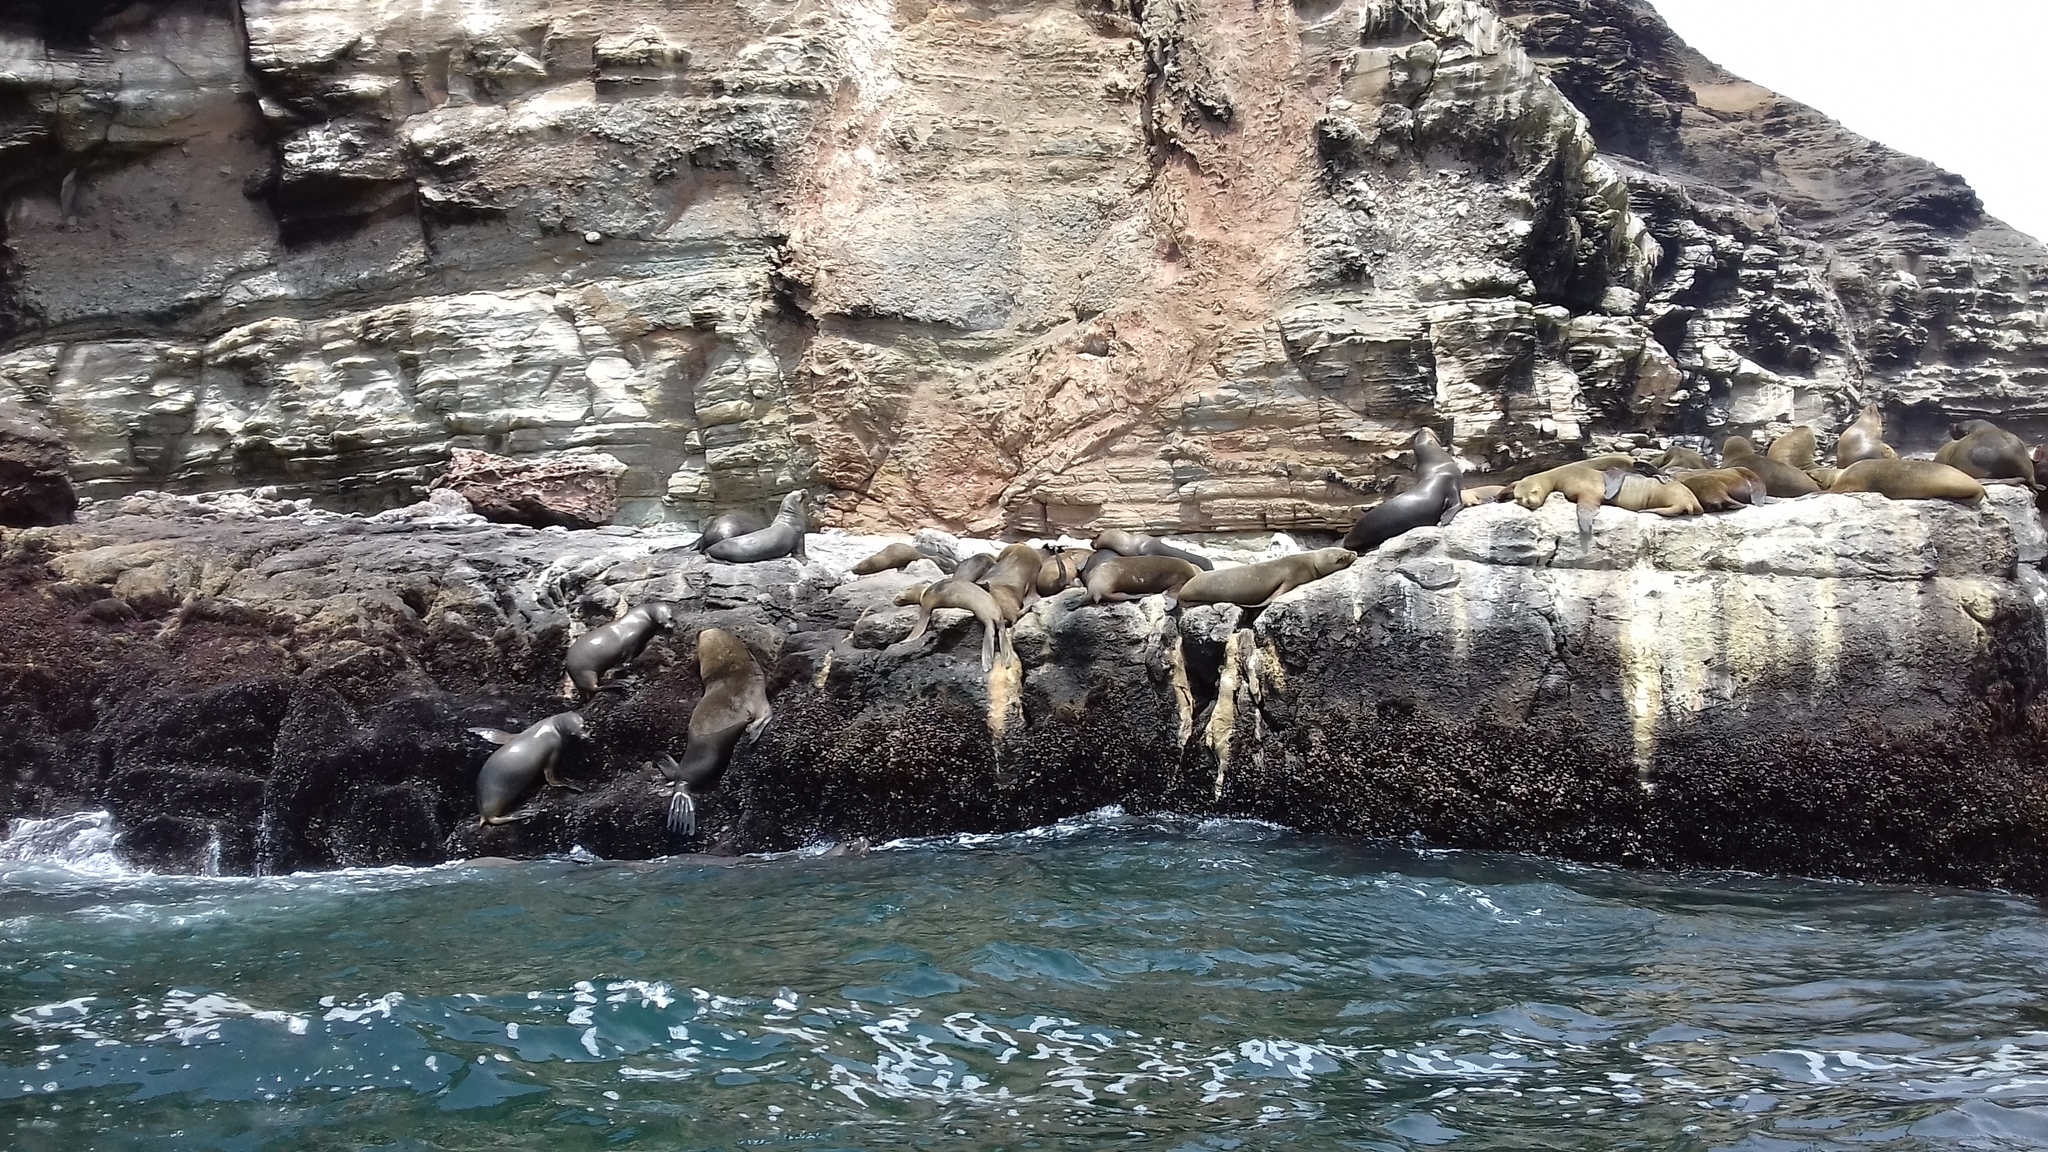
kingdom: Animalia
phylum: Chordata
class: Mammalia
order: Carnivora
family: Otariidae
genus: Otaria
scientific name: Otaria byronia
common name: South american sea lion
